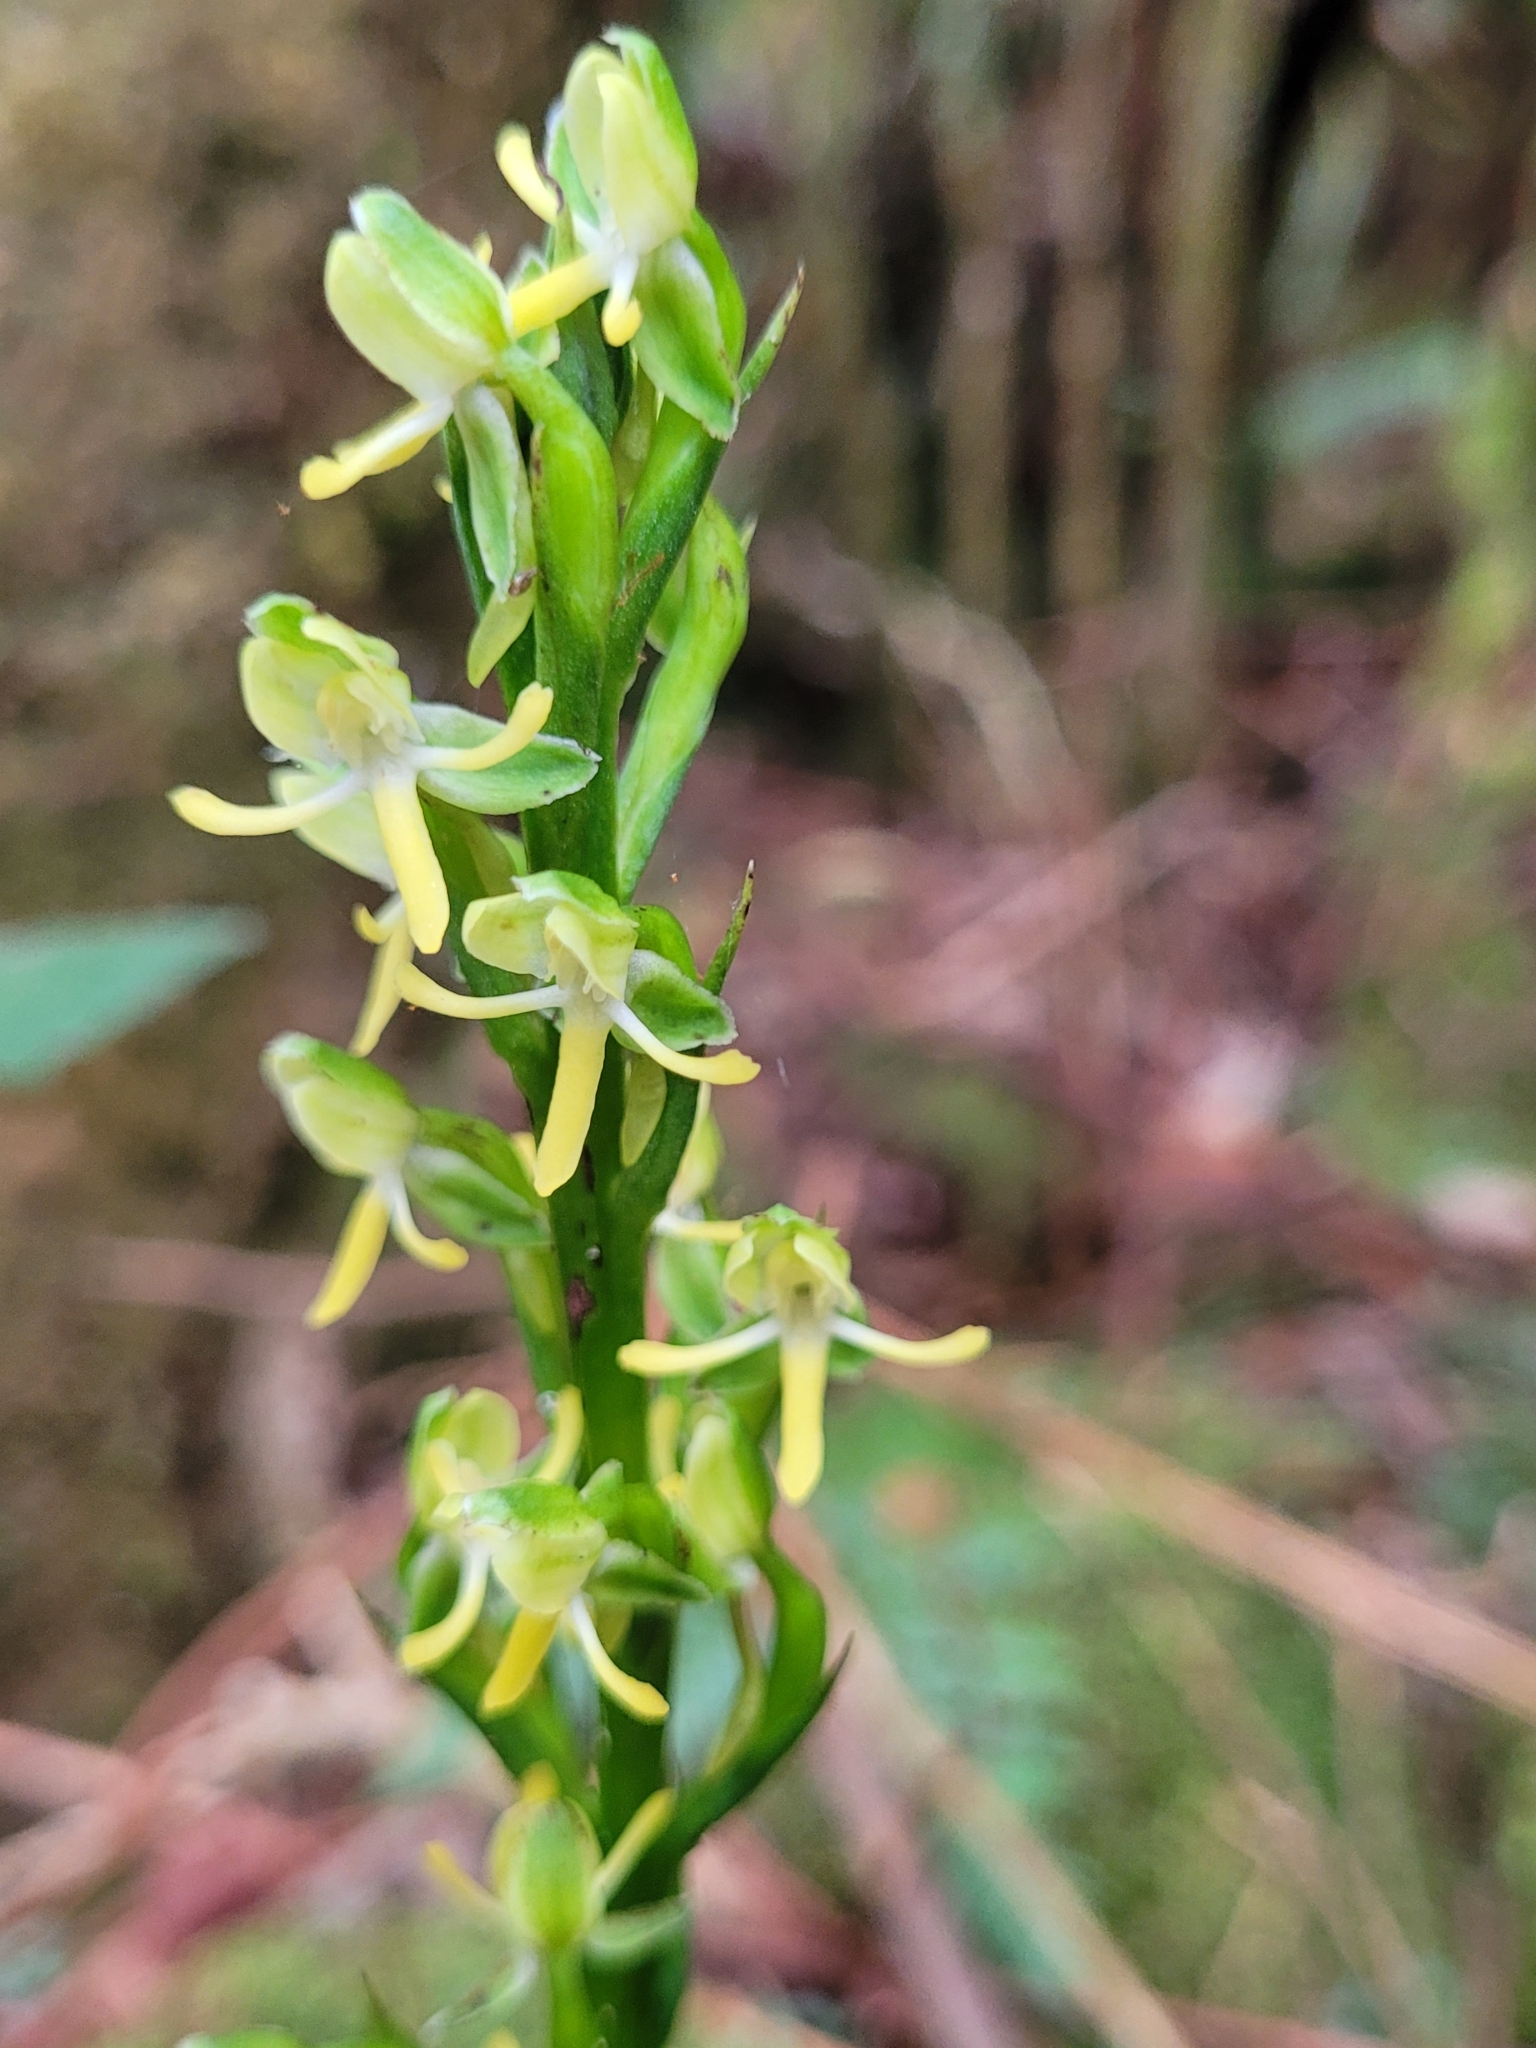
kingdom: Plantae
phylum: Tracheophyta
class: Liliopsida
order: Asparagales
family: Orchidaceae
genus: Habenaria
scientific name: Habenaria praealta
